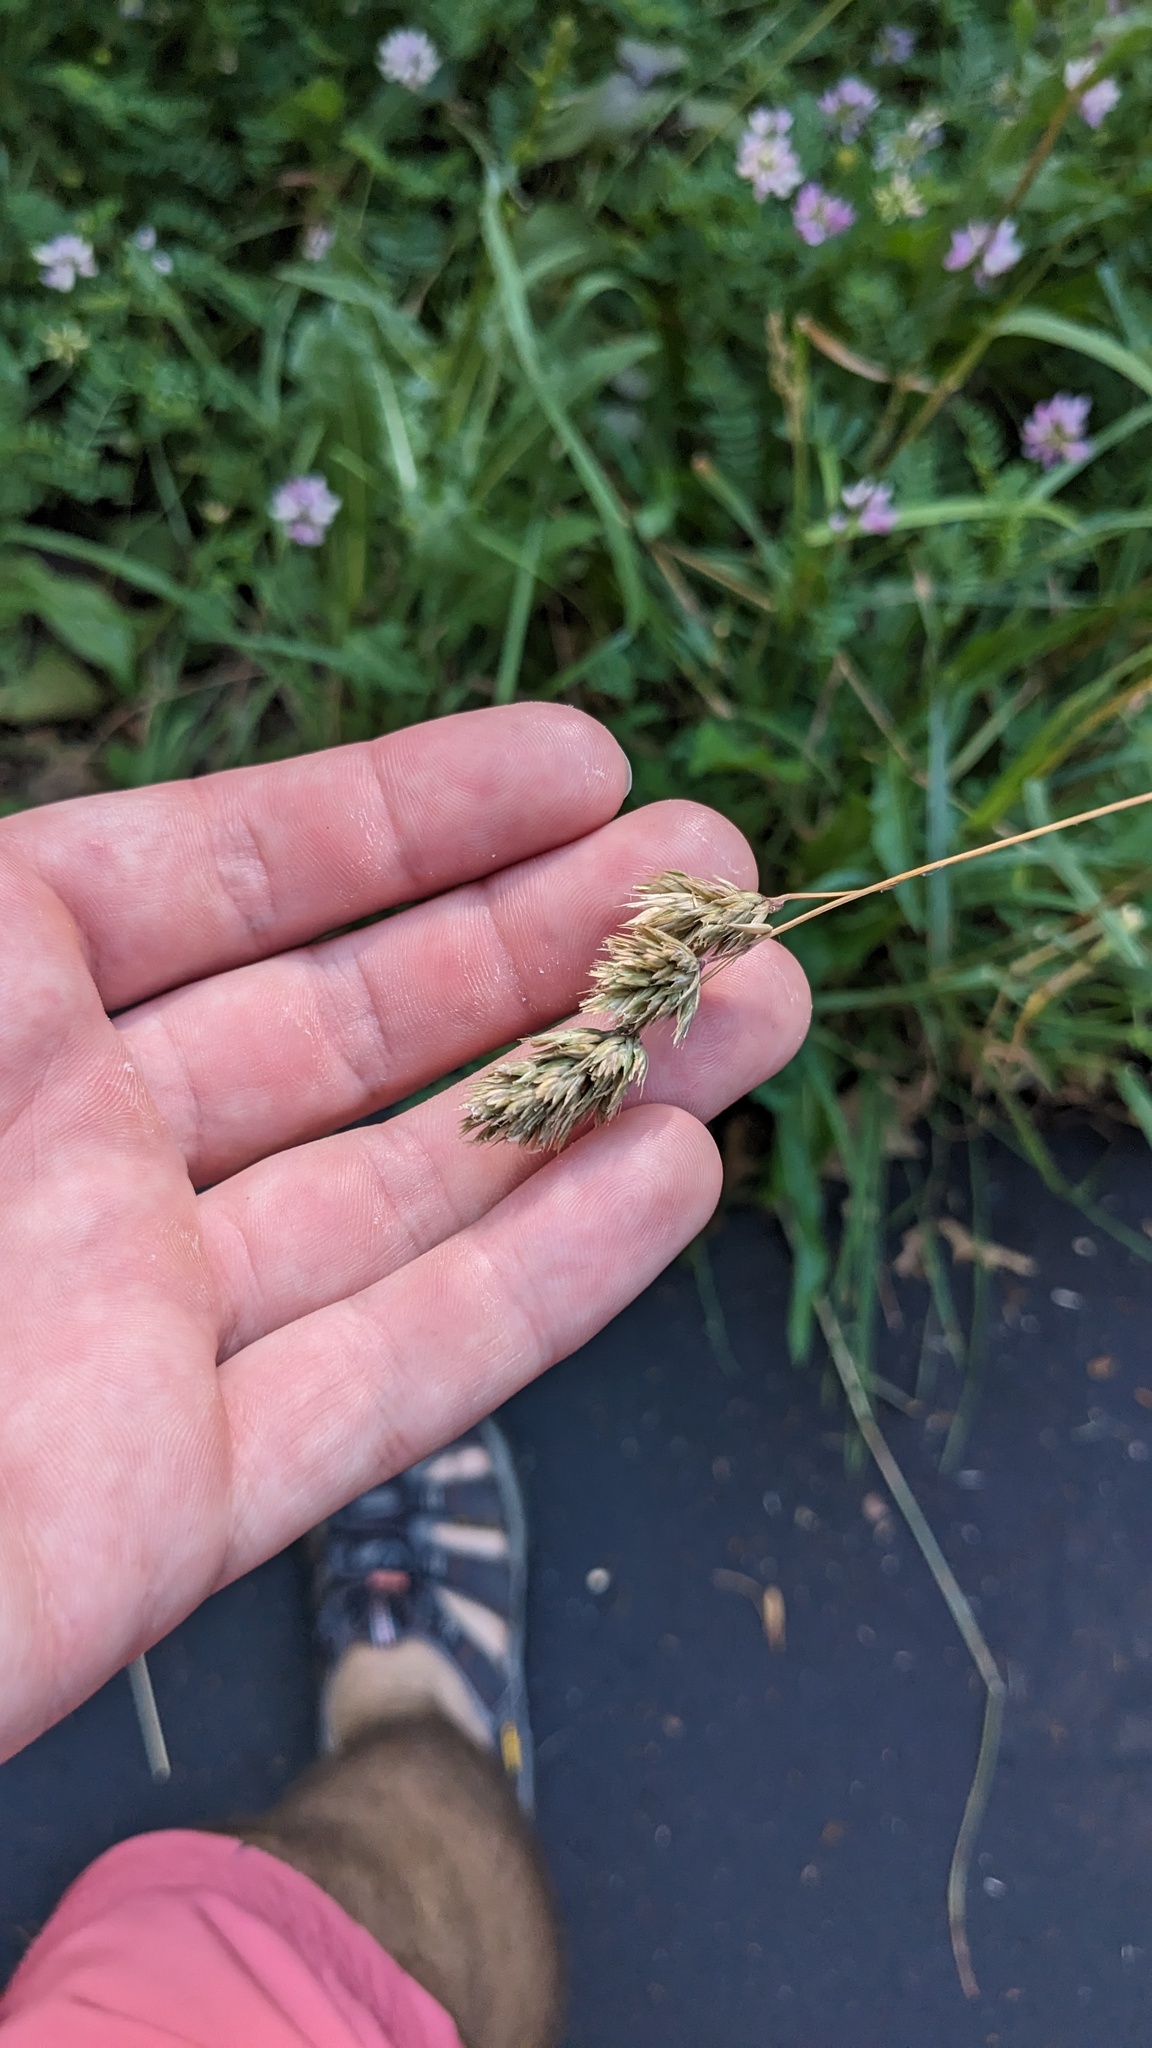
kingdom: Plantae
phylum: Tracheophyta
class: Liliopsida
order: Poales
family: Poaceae
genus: Dactylis
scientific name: Dactylis glomerata
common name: Orchardgrass
